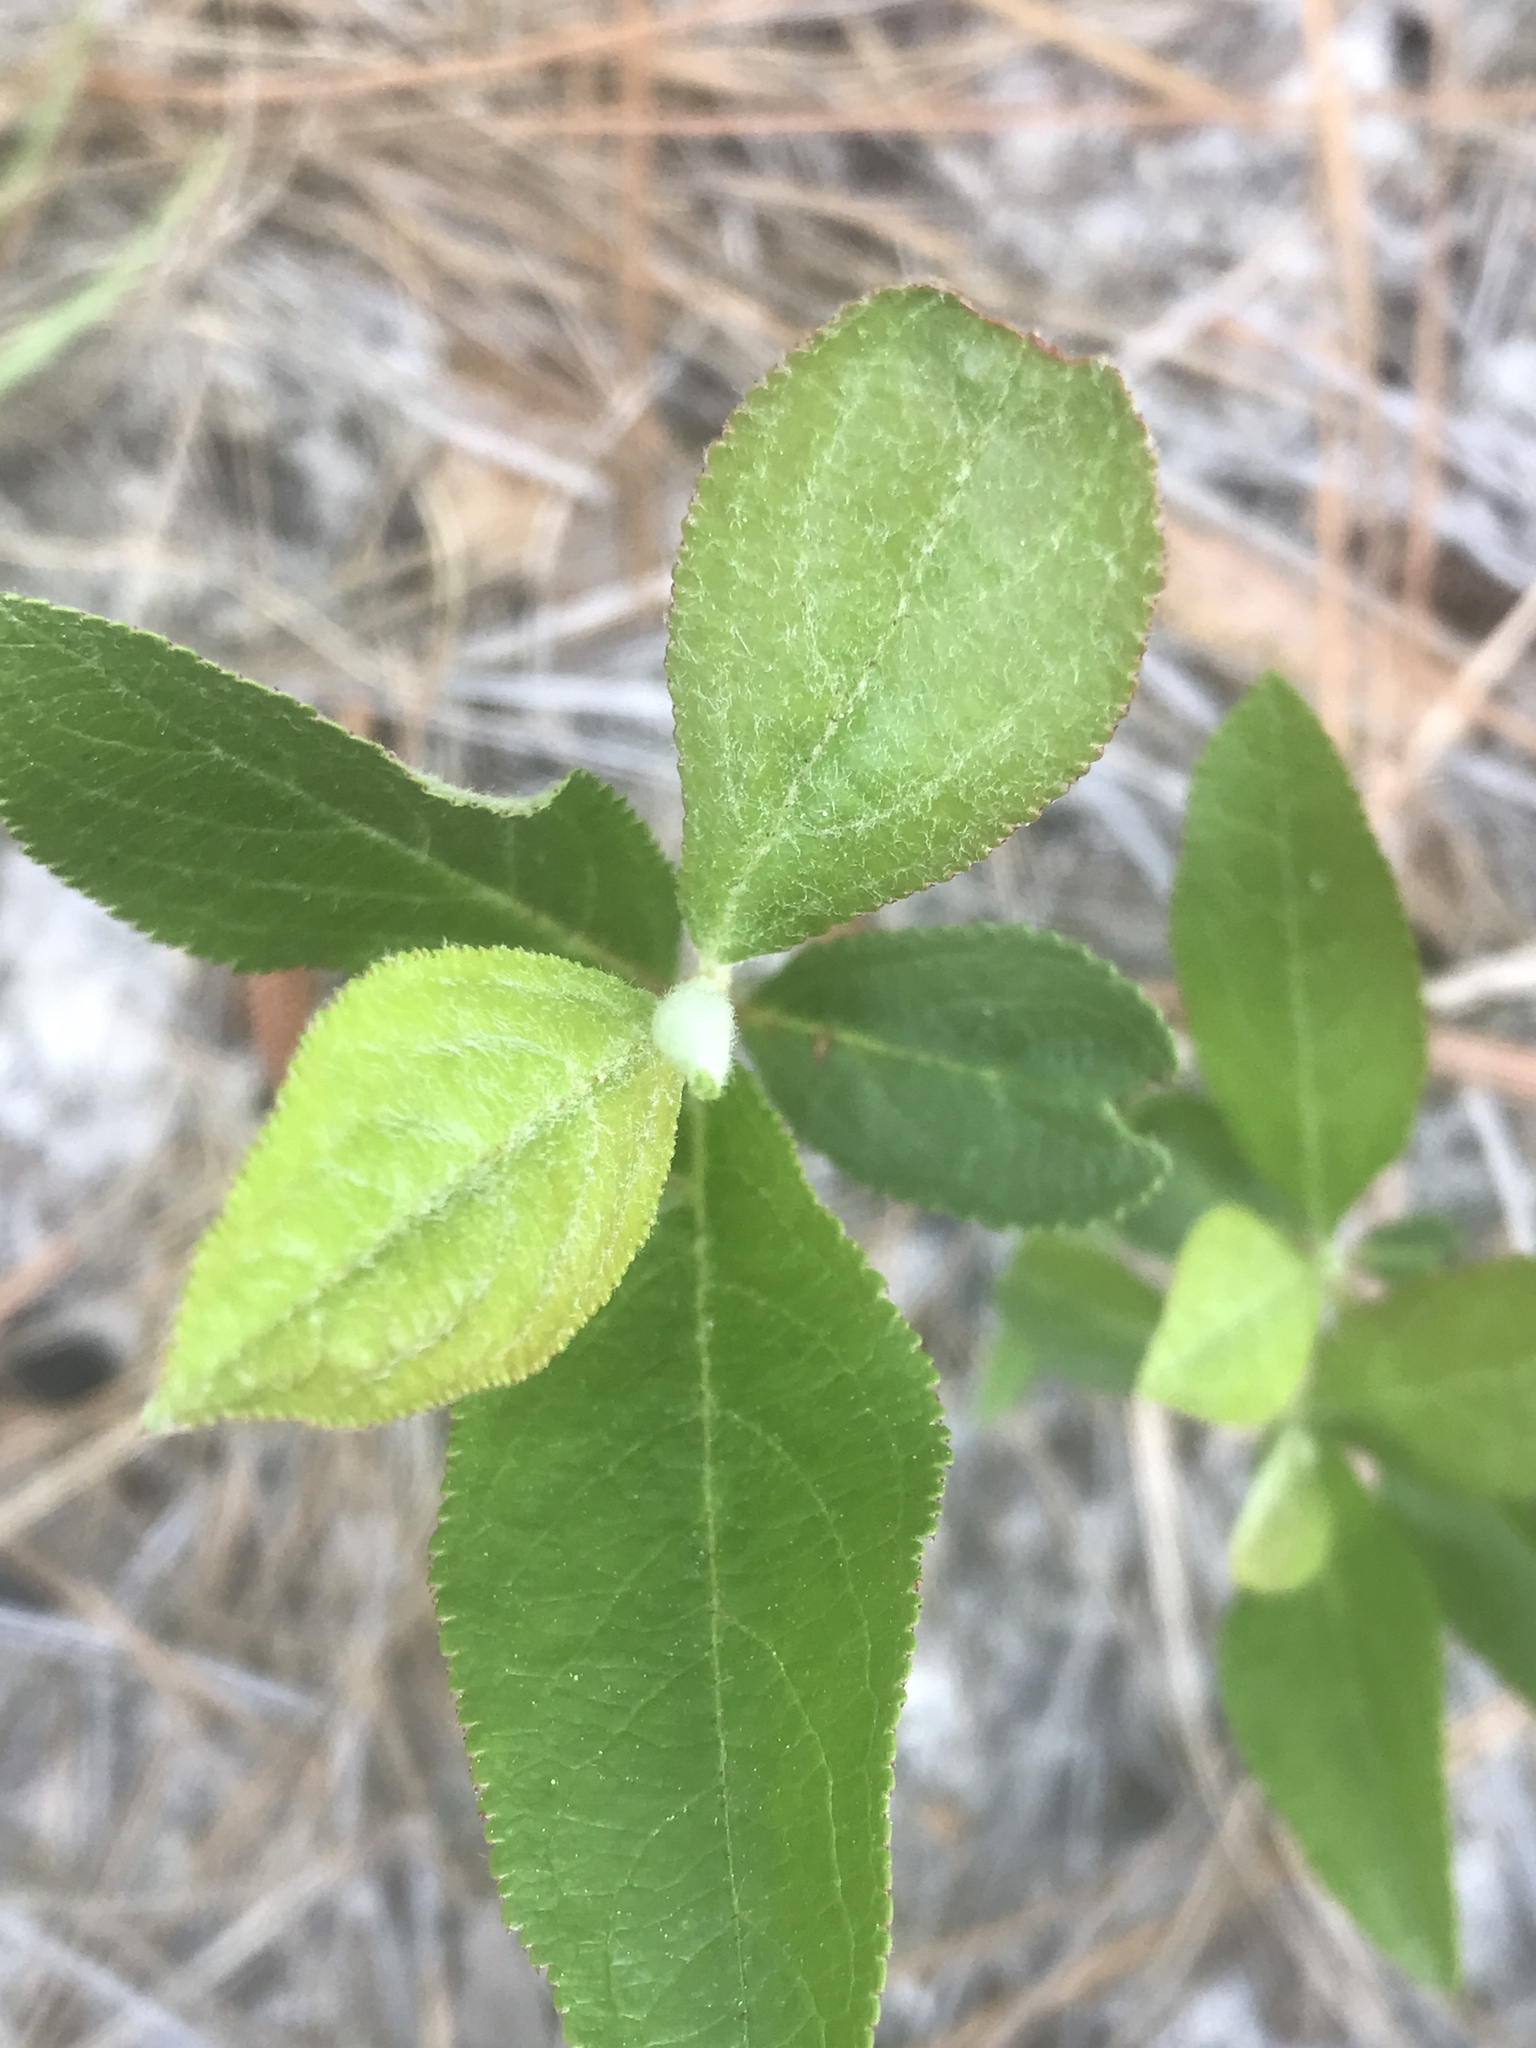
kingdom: Plantae
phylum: Tracheophyta
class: Magnoliopsida
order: Rosales
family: Rosaceae
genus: Aronia
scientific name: Aronia arbutifolia
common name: Red chokeberry
